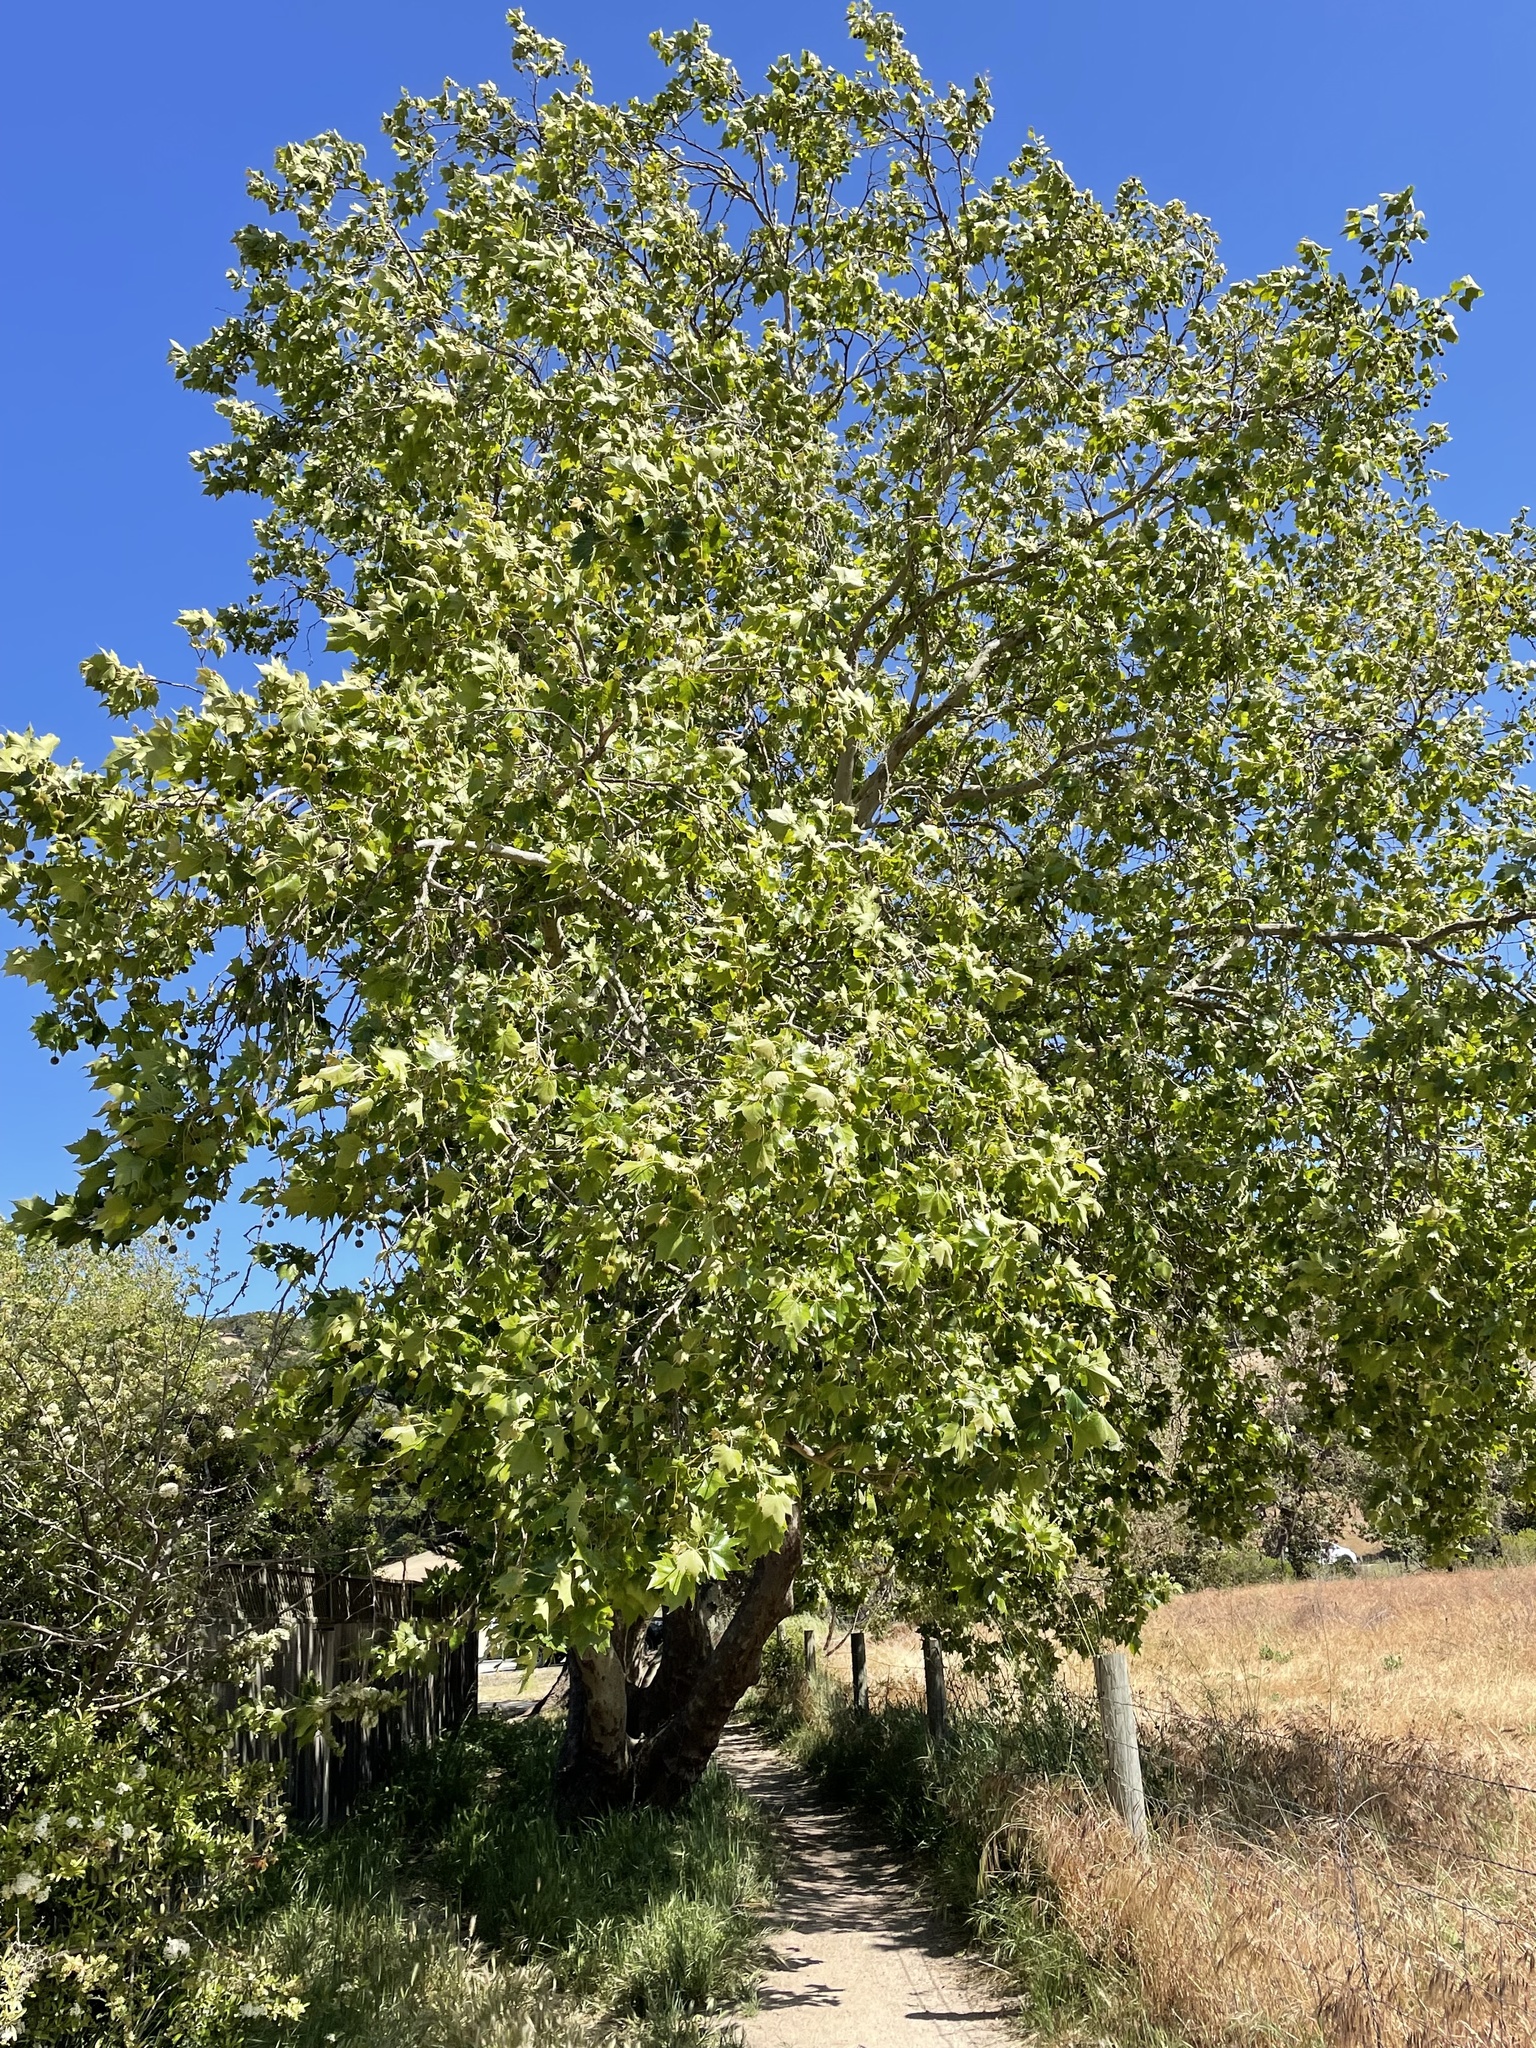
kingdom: Plantae
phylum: Tracheophyta
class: Magnoliopsida
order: Proteales
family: Platanaceae
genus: Platanus
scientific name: Platanus racemosa
